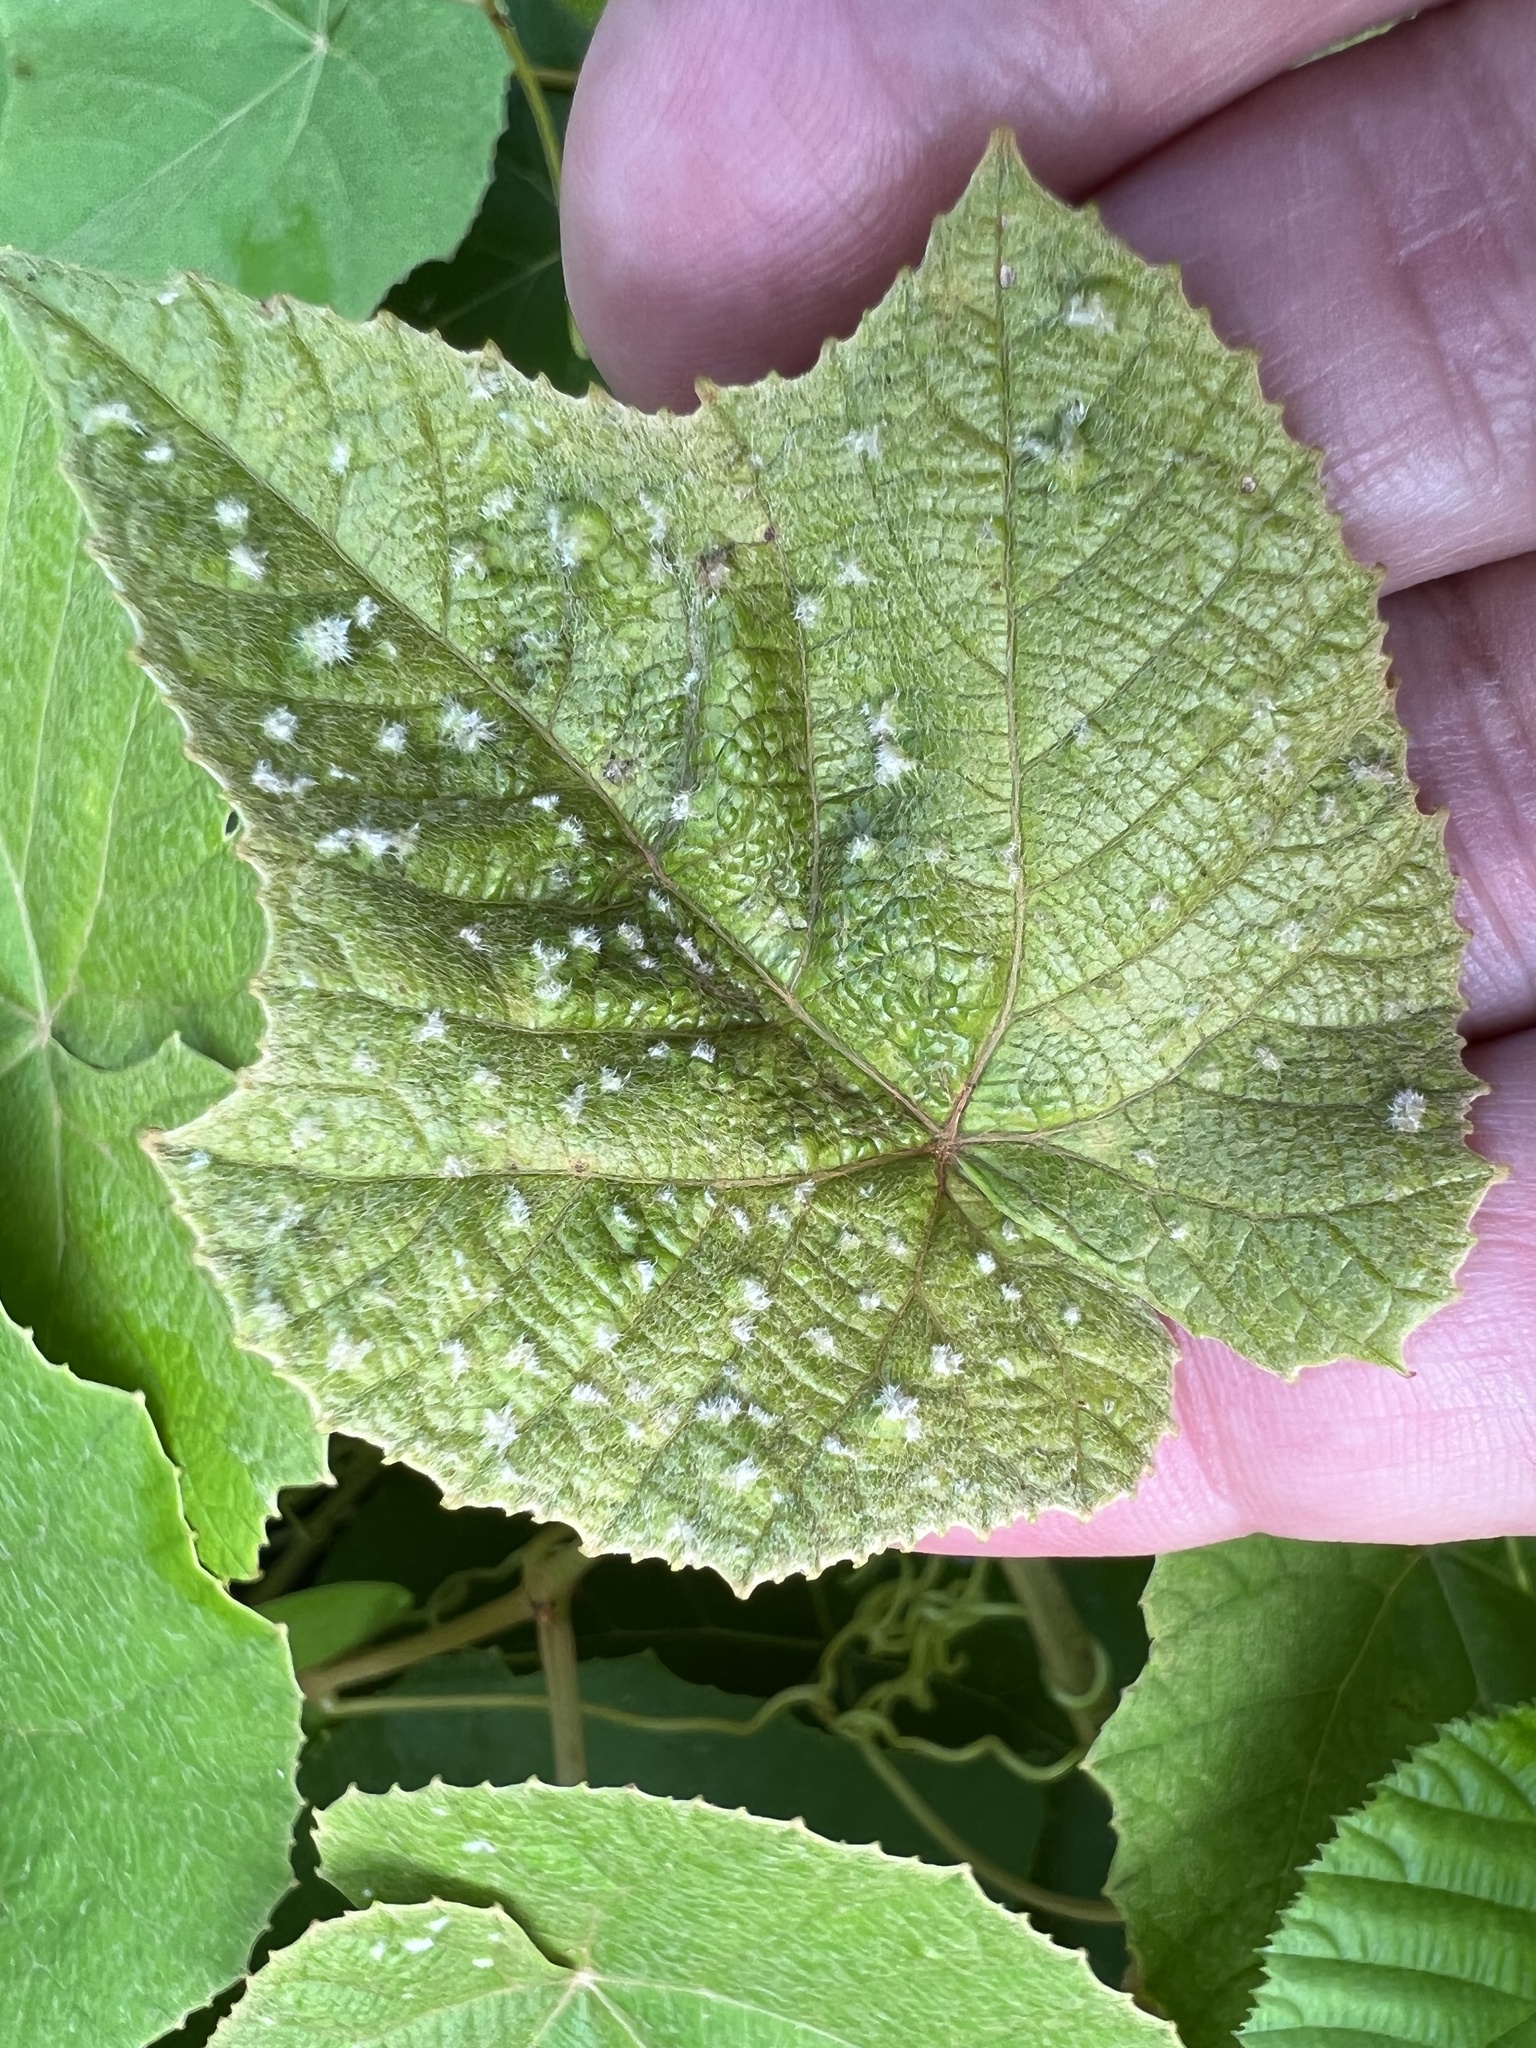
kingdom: Animalia
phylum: Arthropoda
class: Insecta
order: Hemiptera
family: Phylloxeridae
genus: Daktulosphaira
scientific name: Daktulosphaira vitifoliae
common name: Grape phylloxera
